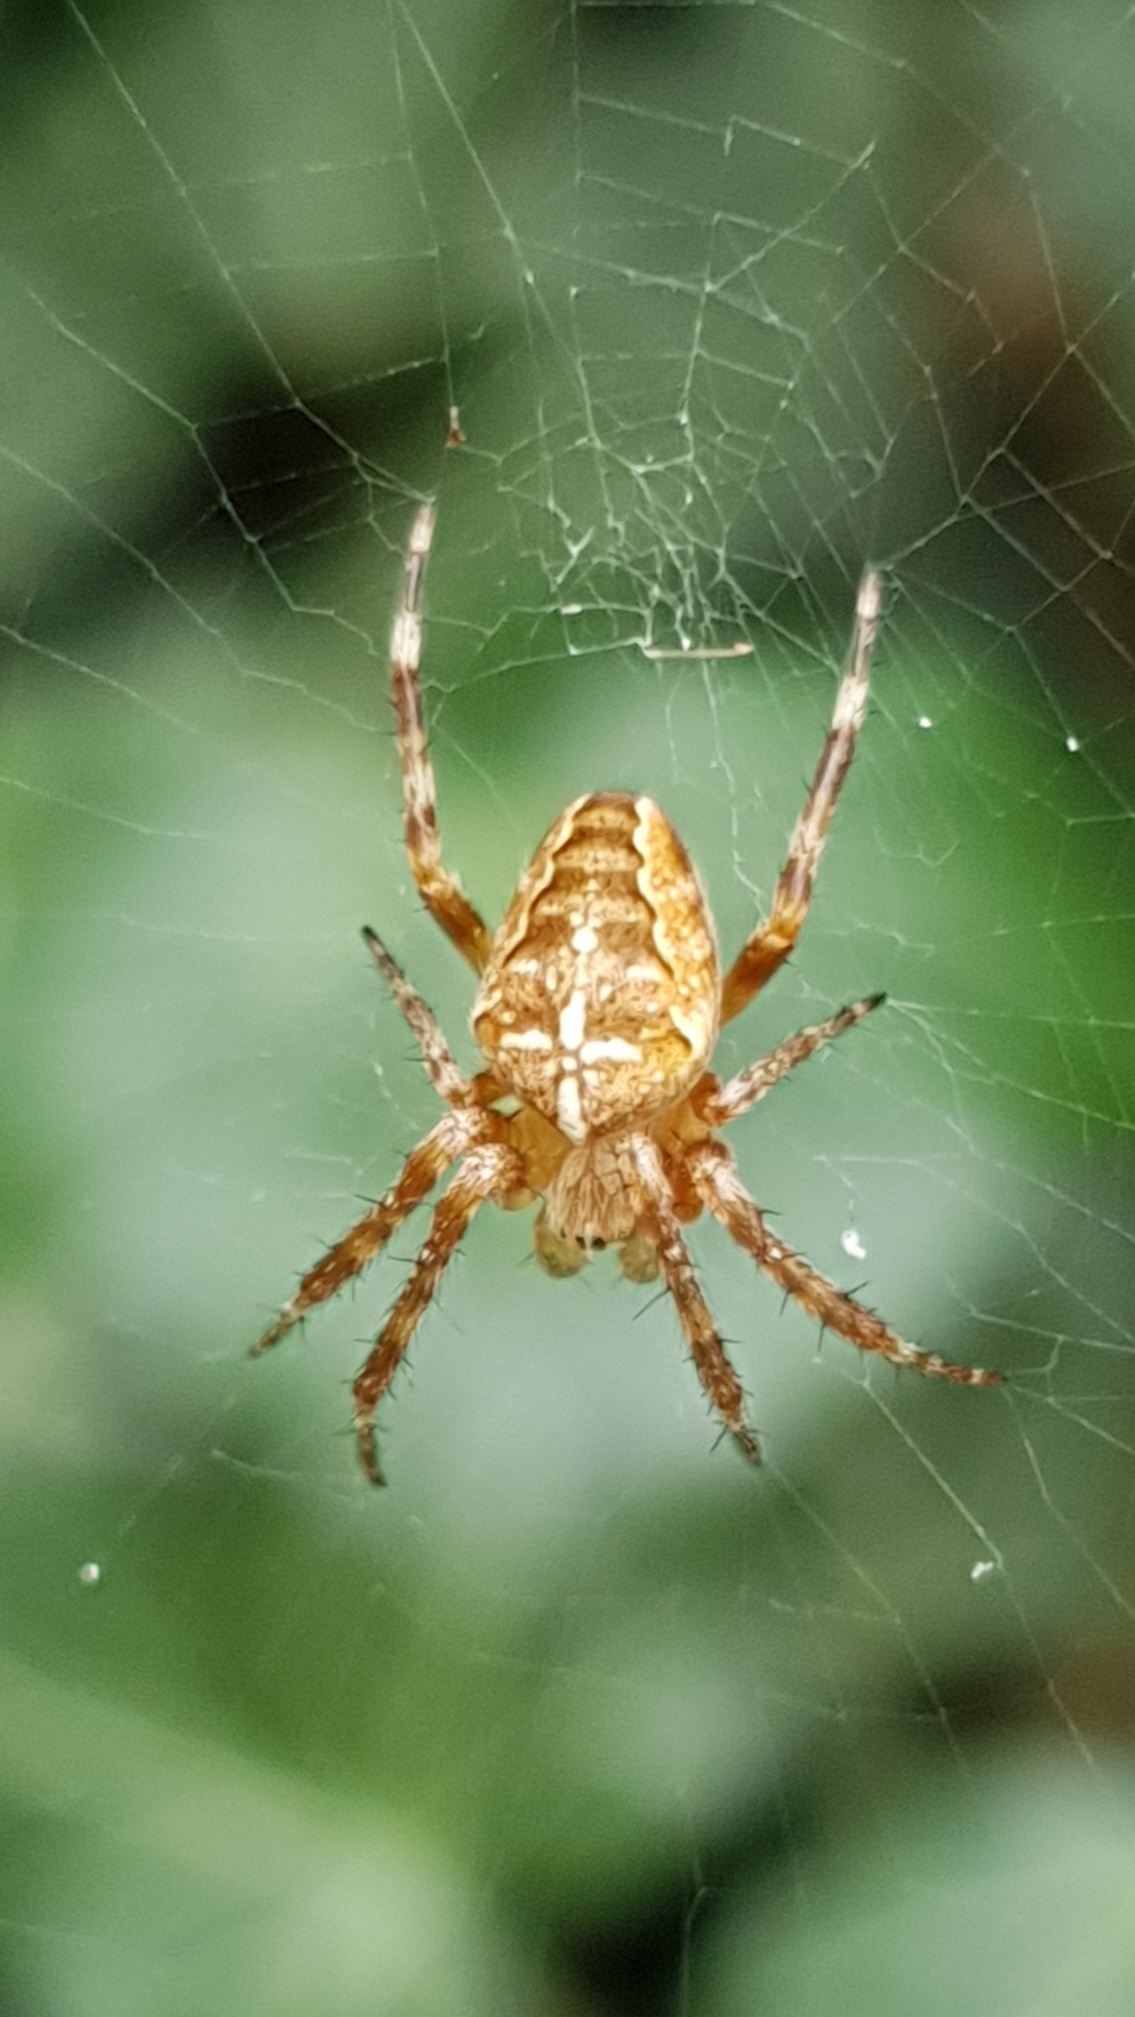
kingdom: Animalia
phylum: Arthropoda
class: Arachnida
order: Araneae
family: Araneidae
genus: Araneus
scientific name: Araneus diadematus
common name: Cross orbweaver
